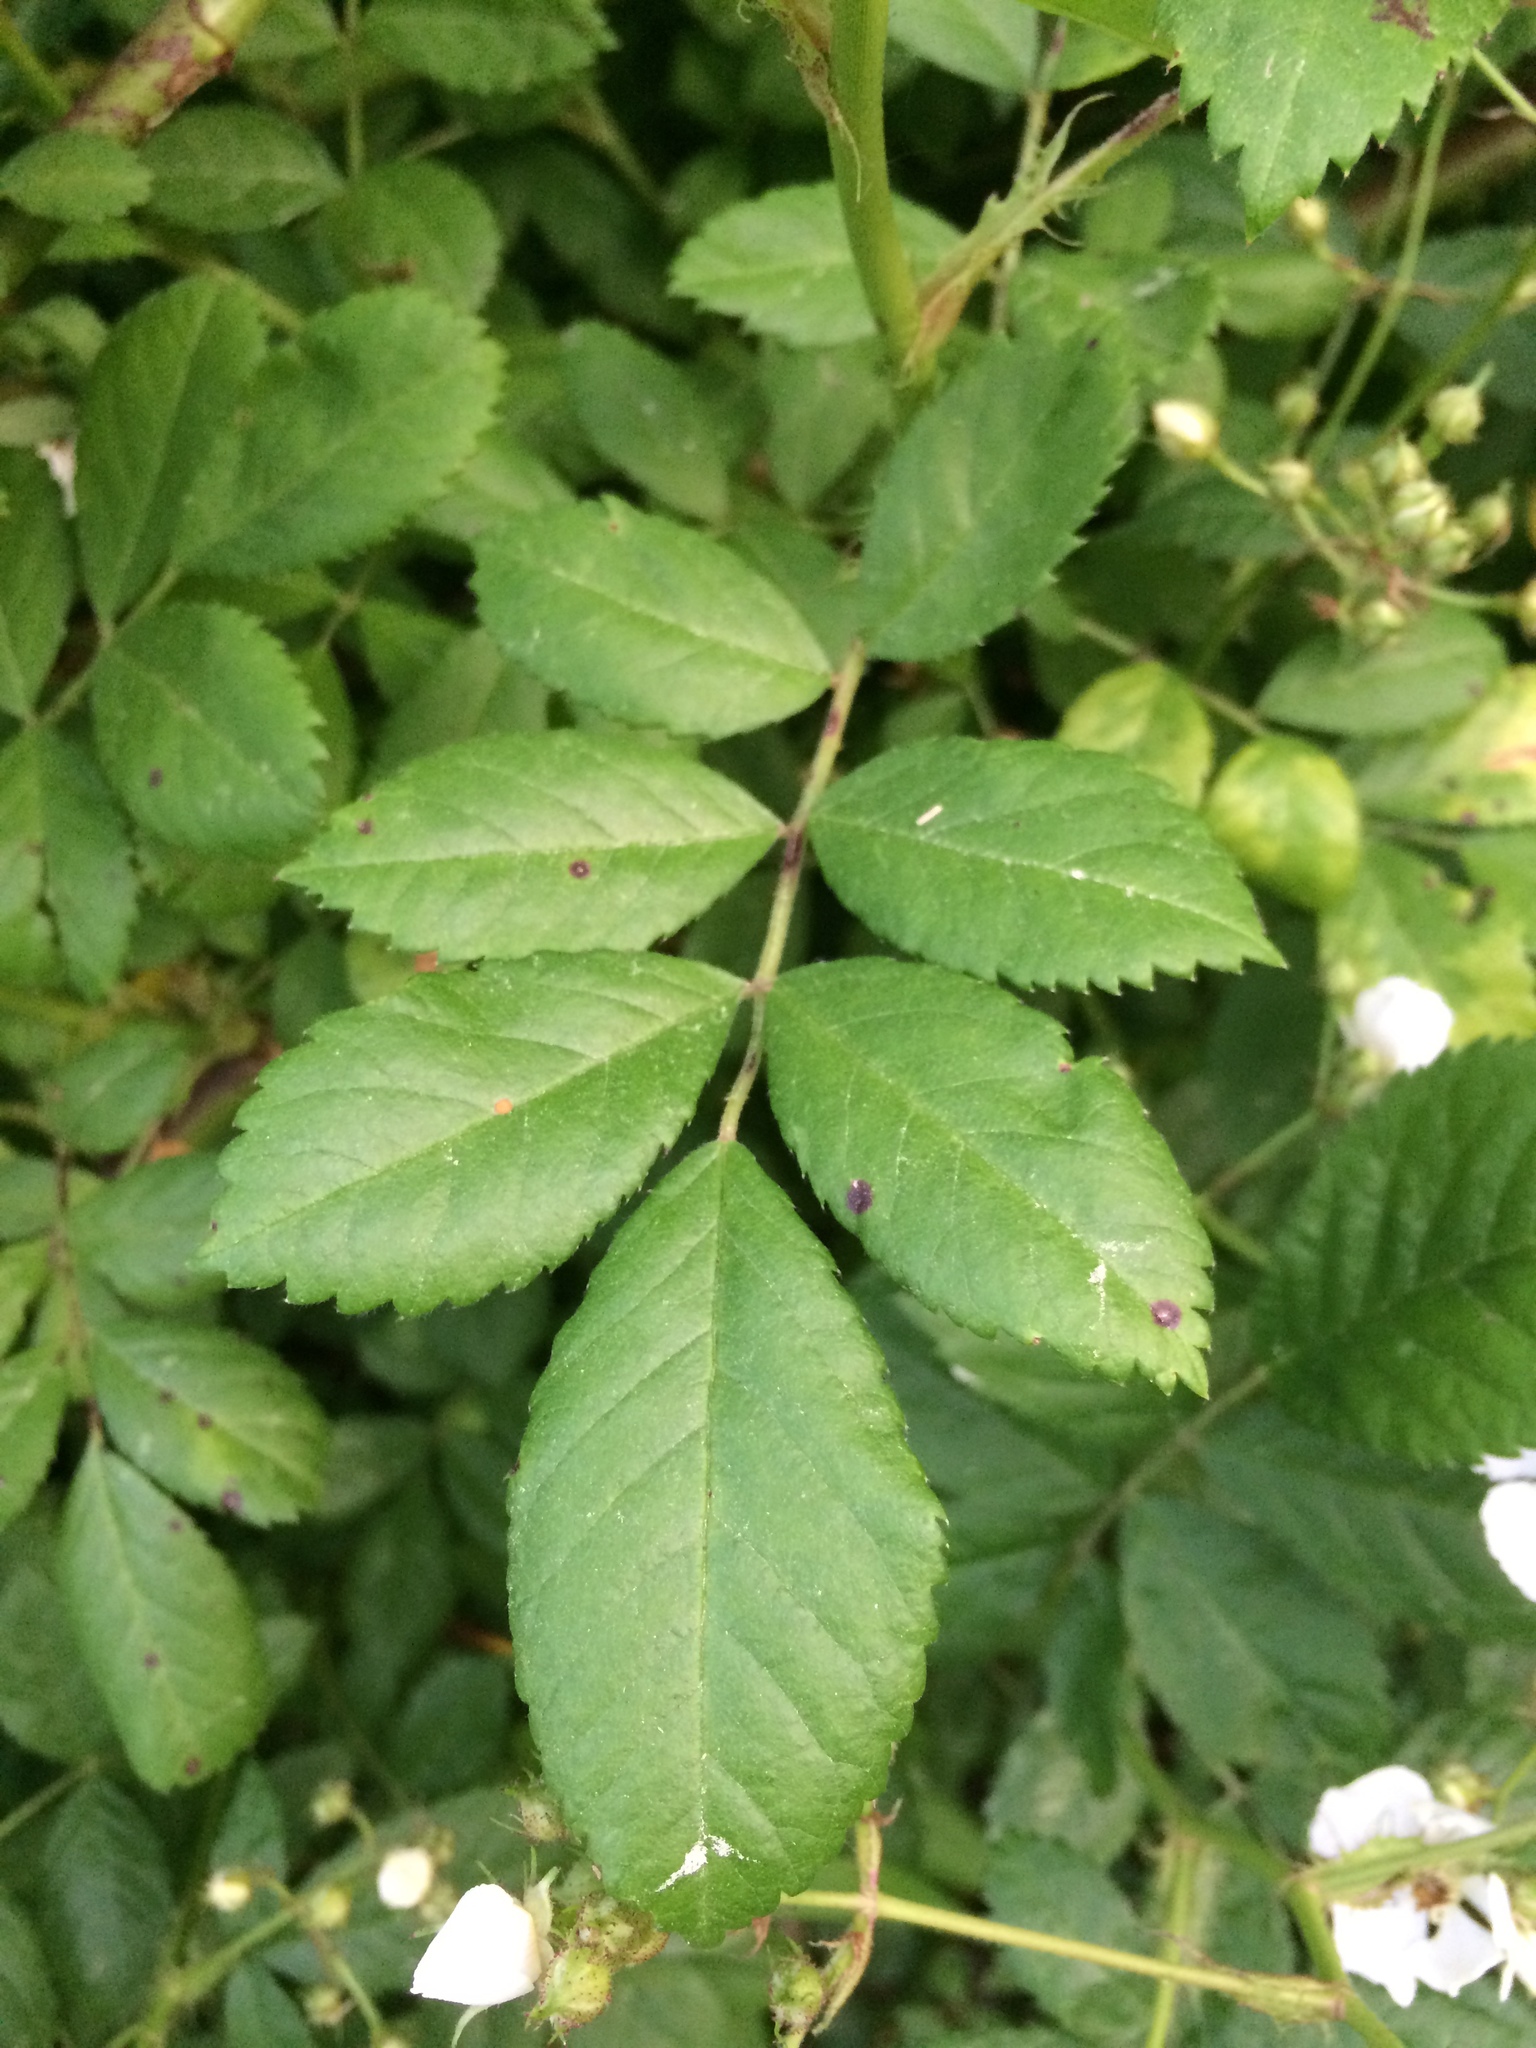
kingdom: Plantae
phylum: Tracheophyta
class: Magnoliopsida
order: Rosales
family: Rosaceae
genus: Rosa
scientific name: Rosa multiflora
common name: Multiflora rose
